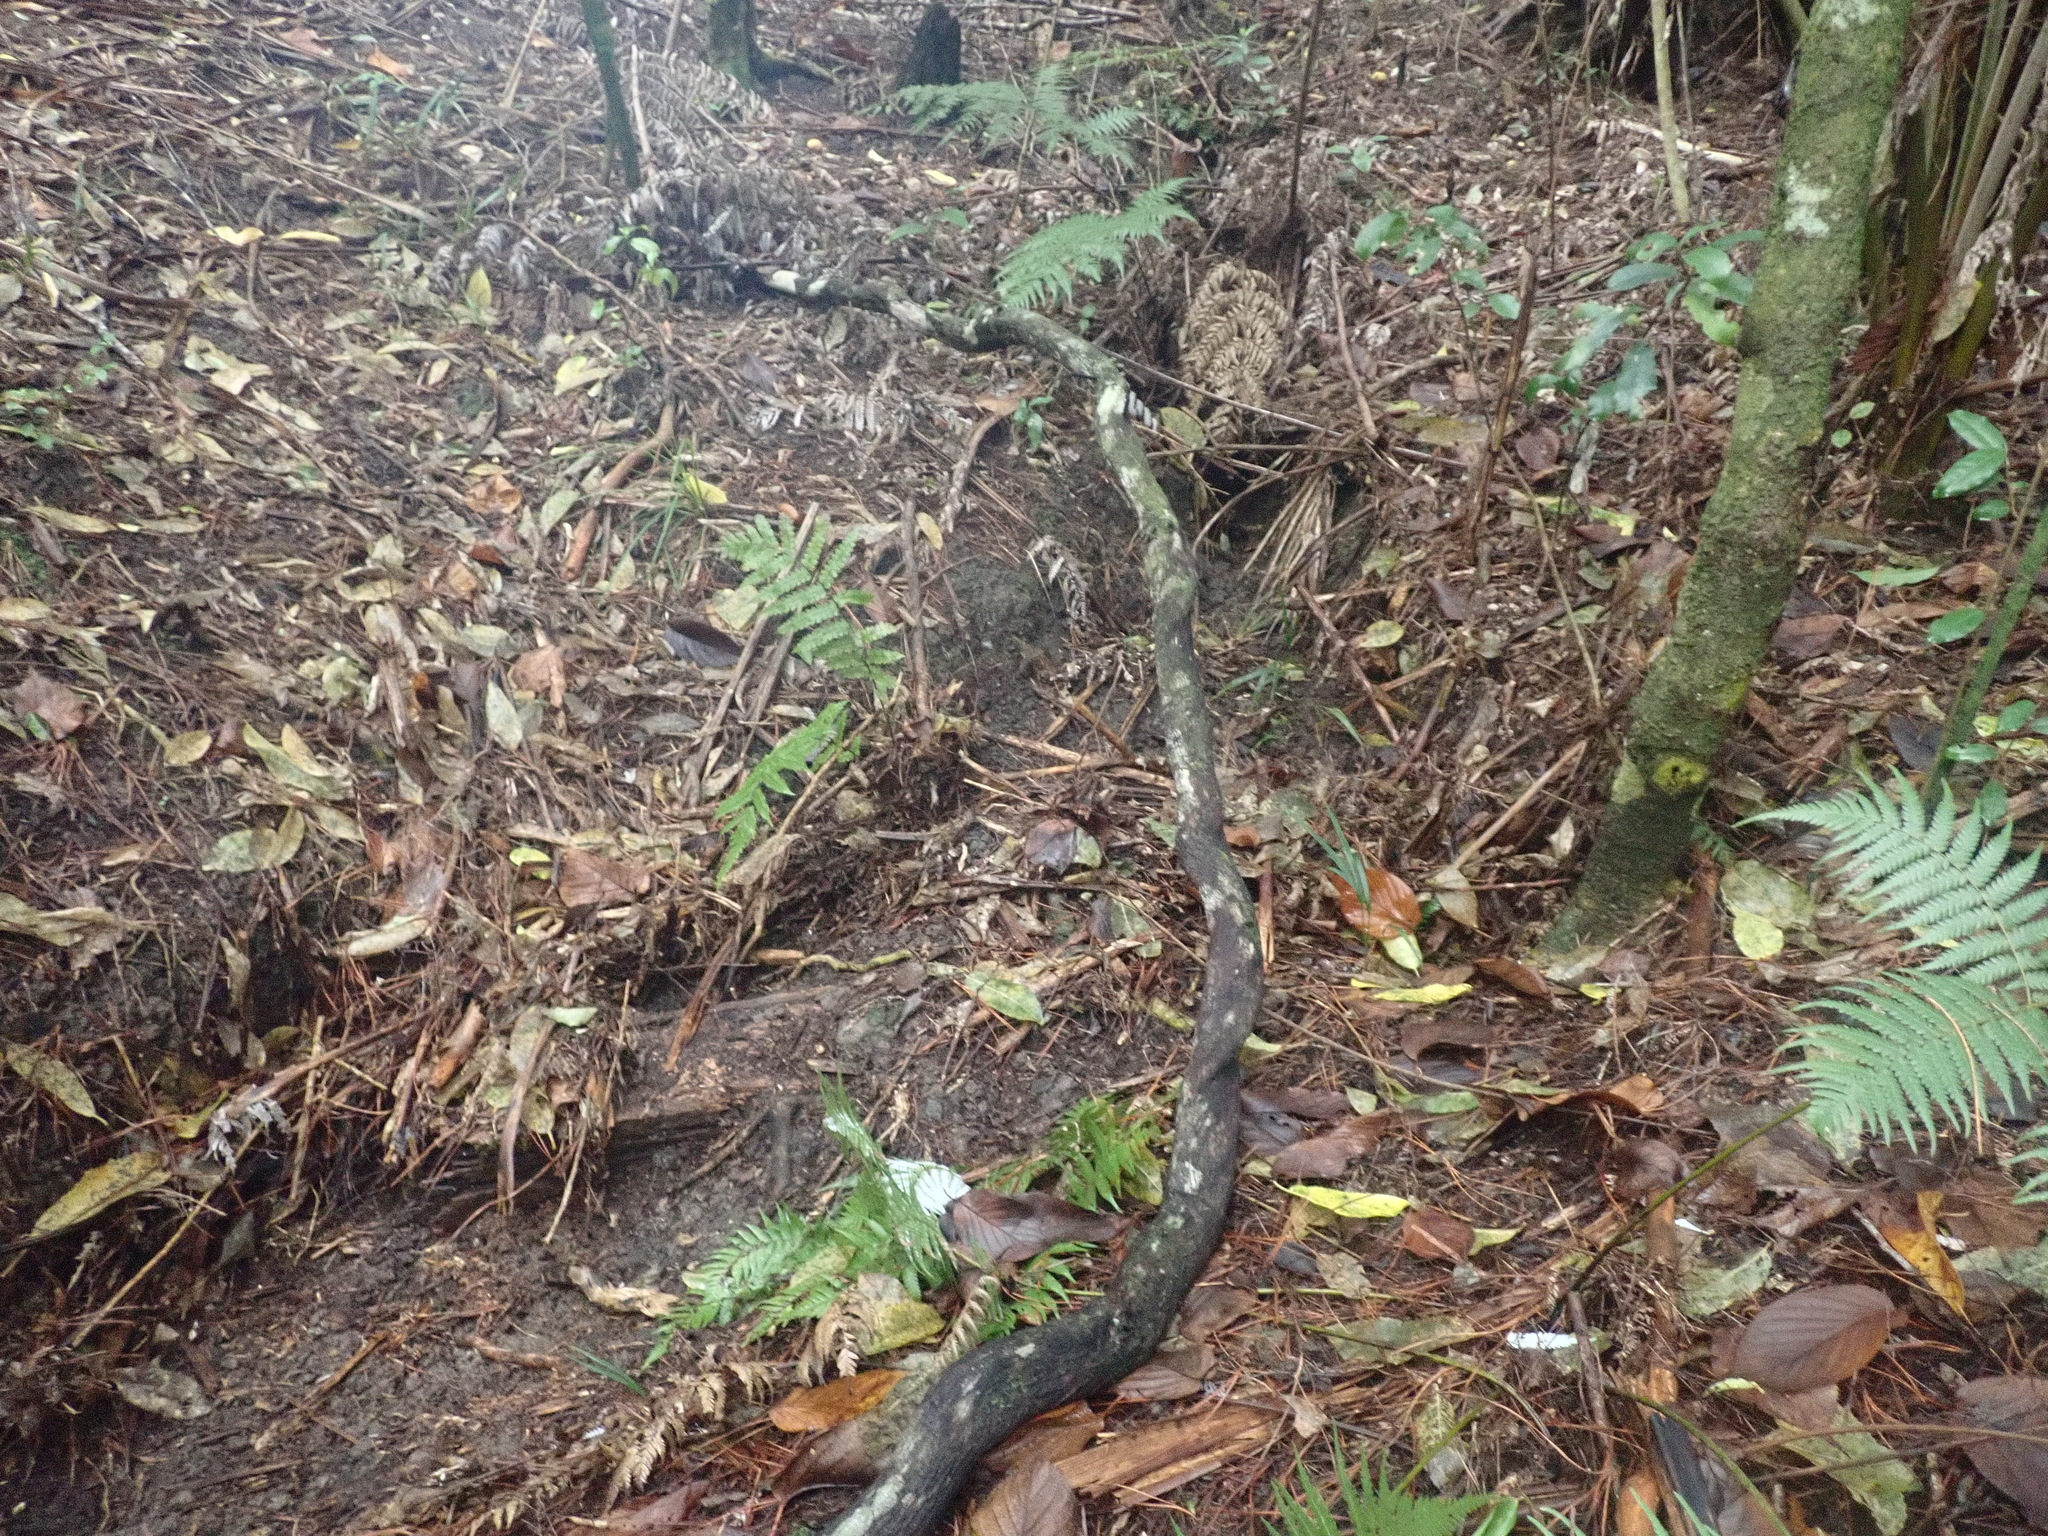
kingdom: Plantae
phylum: Tracheophyta
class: Polypodiopsida
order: Polypodiales
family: Thelypteridaceae
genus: Pakau
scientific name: Pakau pennigera
